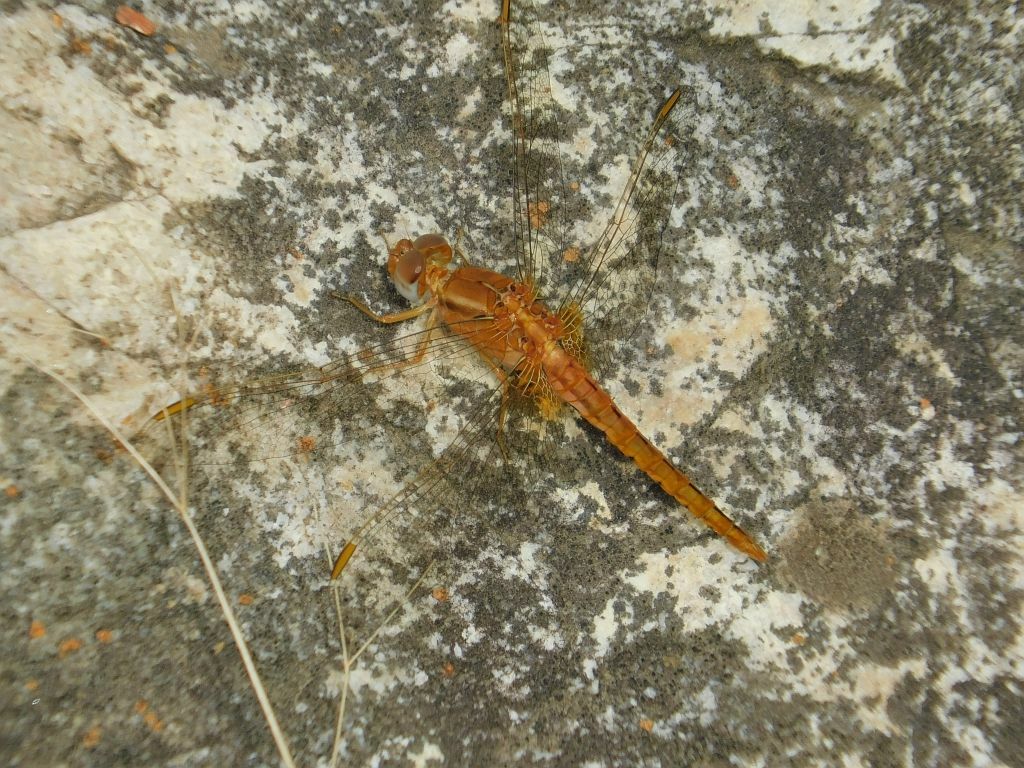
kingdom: Animalia
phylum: Arthropoda
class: Insecta
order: Odonata
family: Libellulidae
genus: Crocothemis
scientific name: Crocothemis sanguinolenta
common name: Little scarlet
